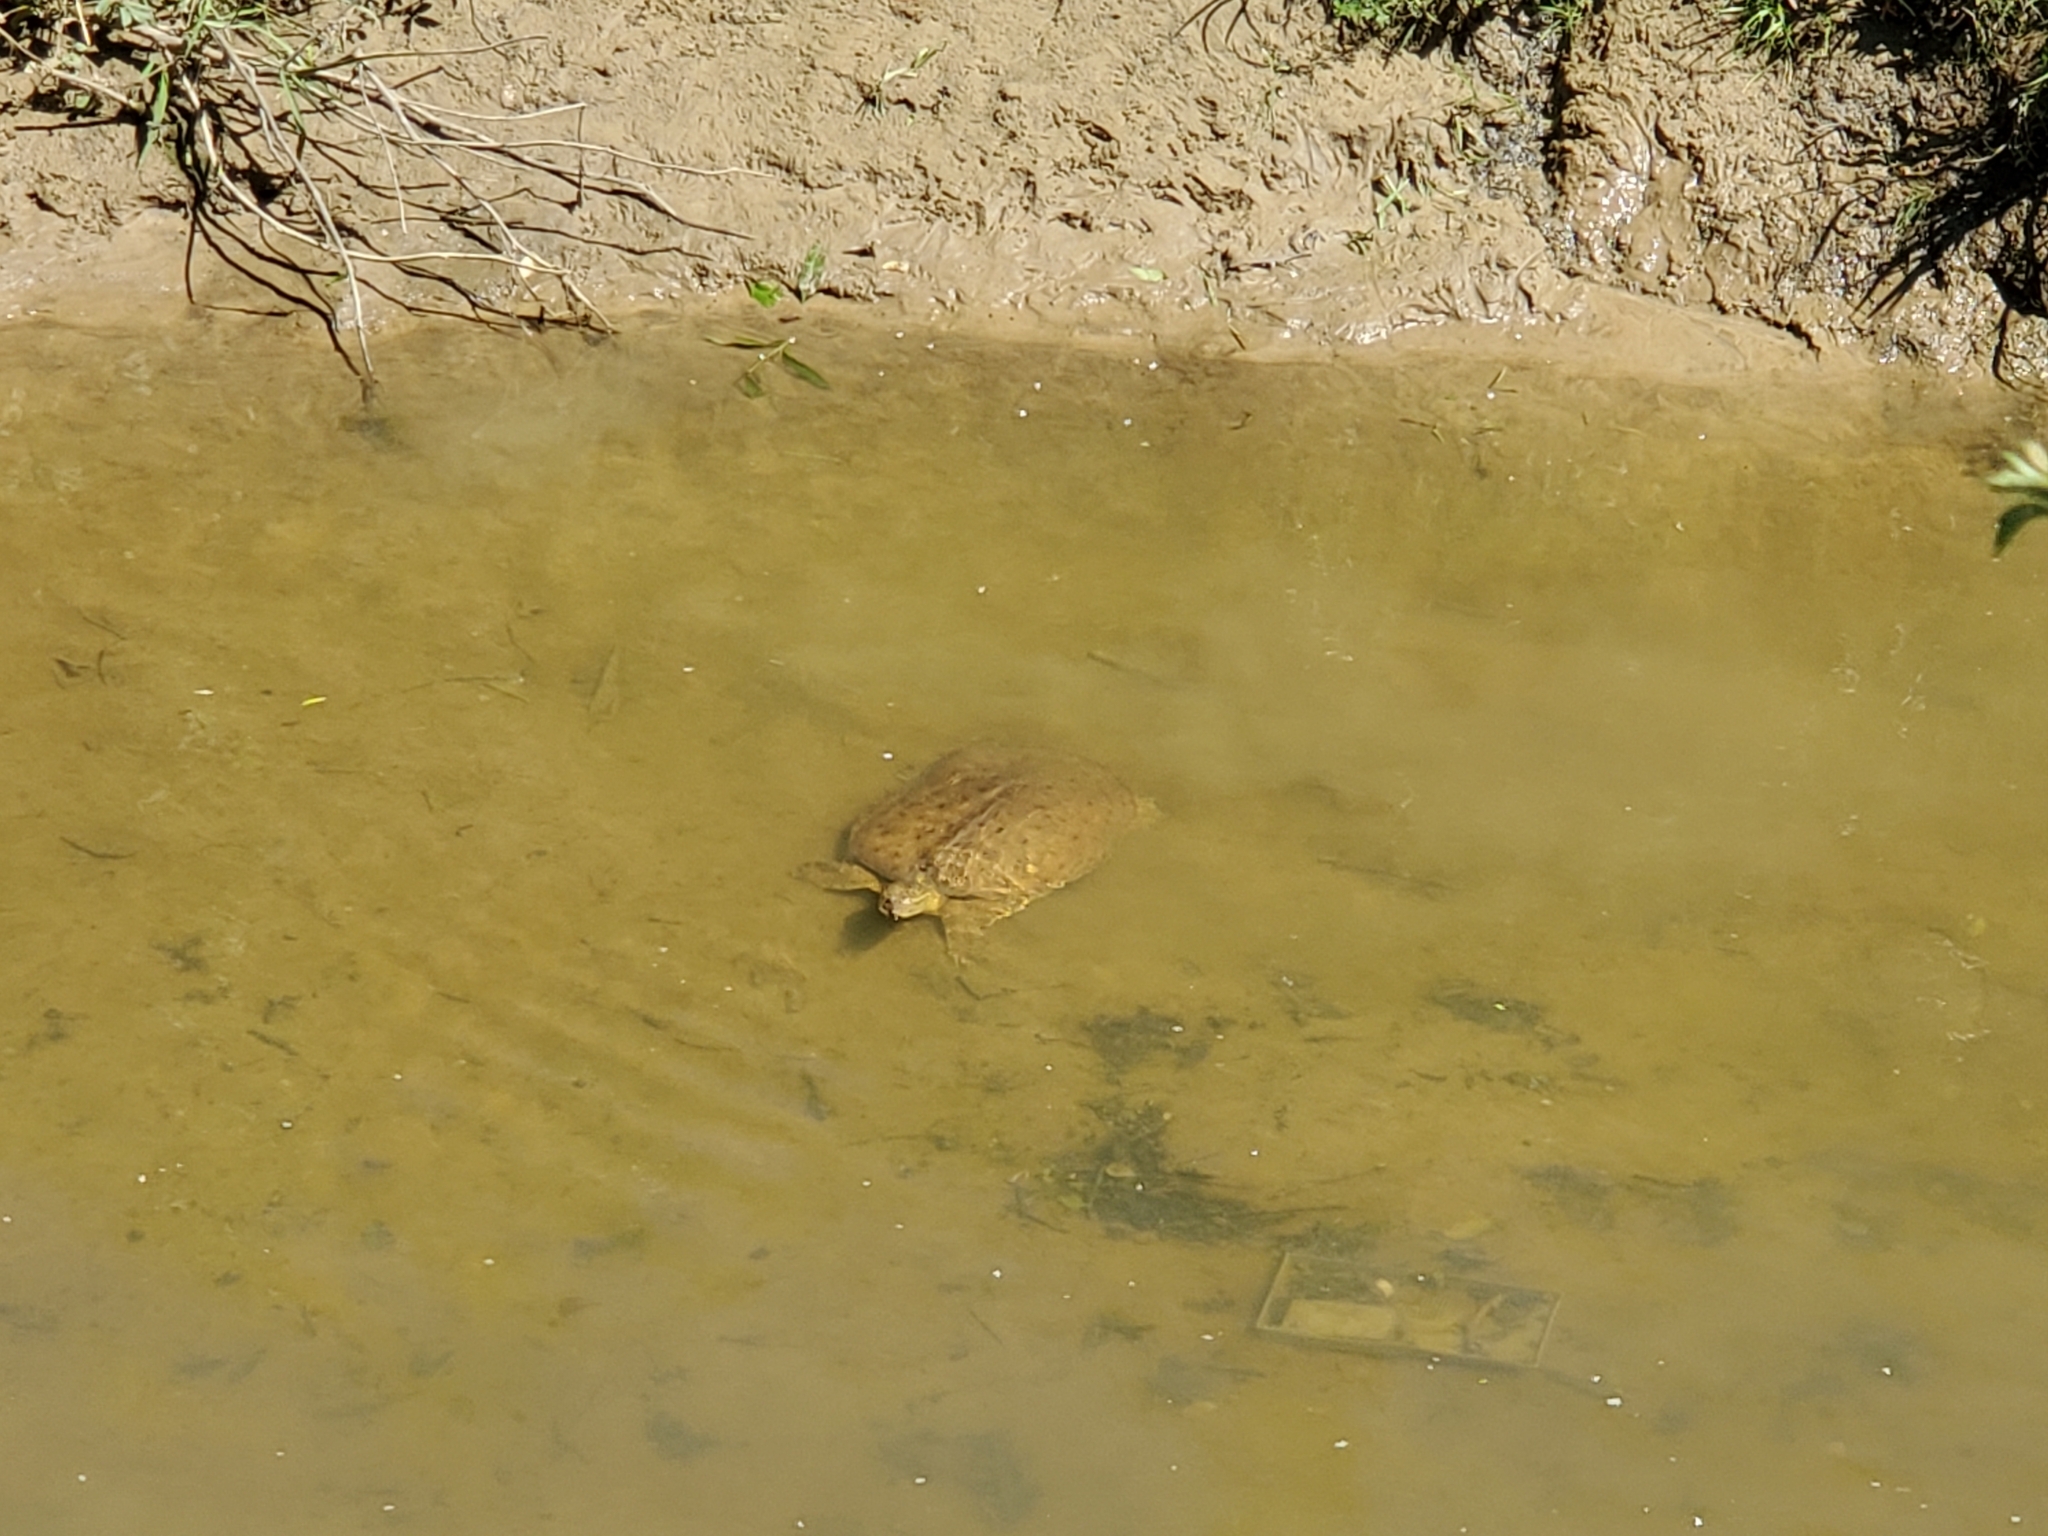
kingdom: Animalia
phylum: Chordata
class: Testudines
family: Trionychidae
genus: Apalone
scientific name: Apalone spinifera
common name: Spiny softshell turtle
